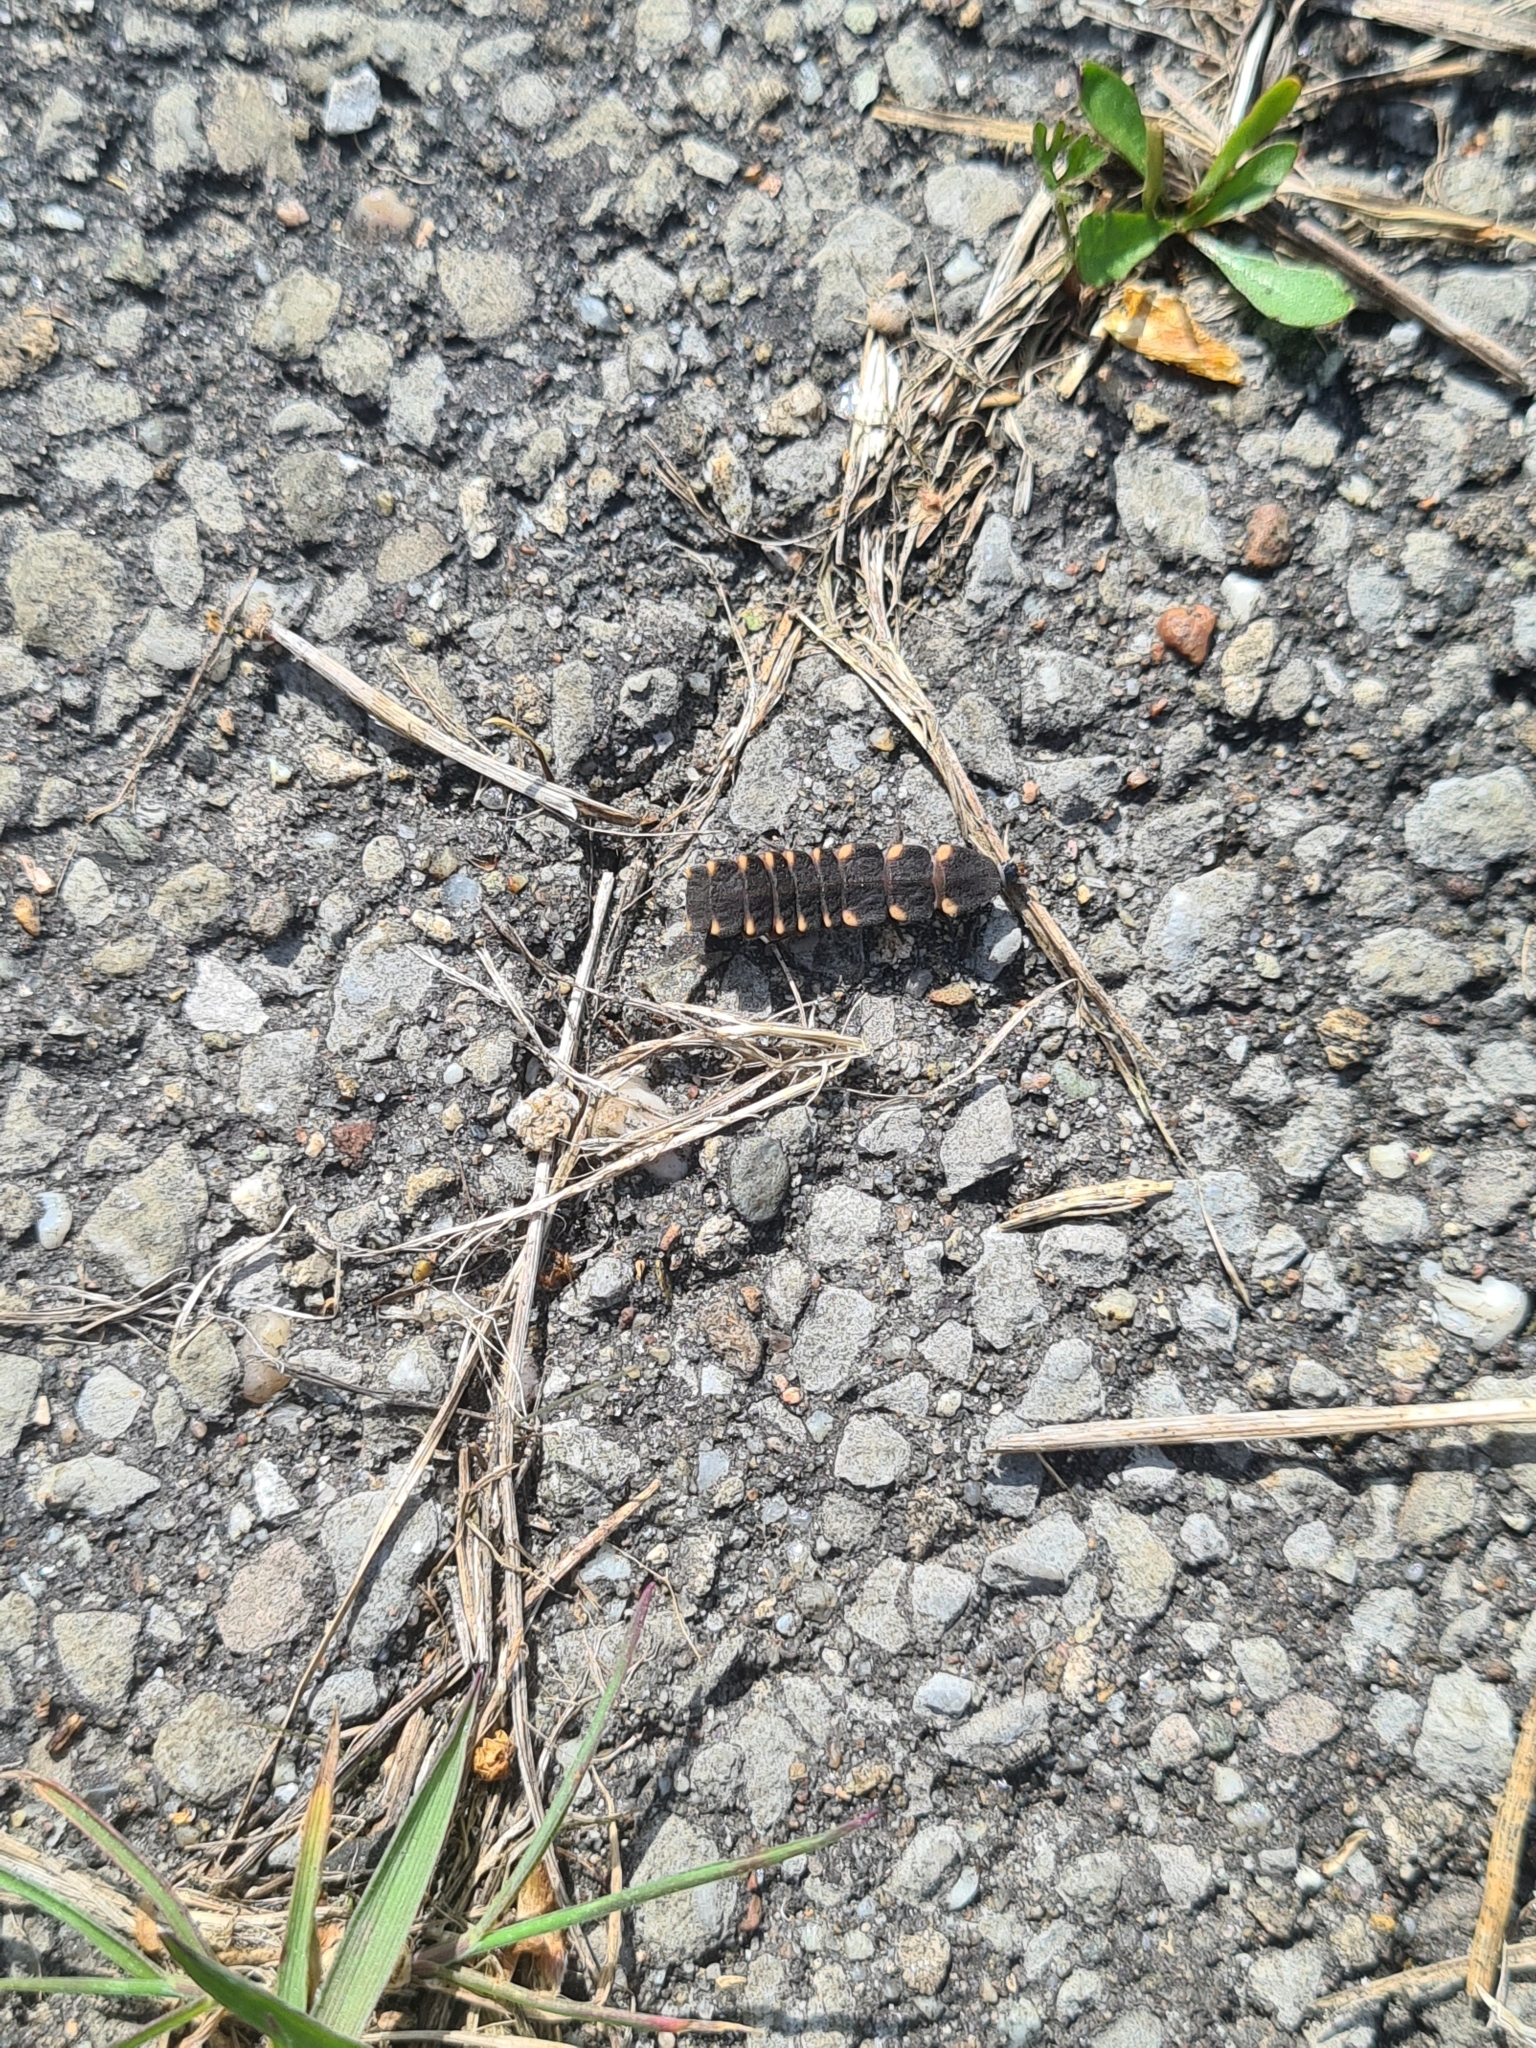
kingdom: Animalia
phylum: Arthropoda
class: Insecta
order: Coleoptera
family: Lampyridae
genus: Lampyris
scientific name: Lampyris noctiluca
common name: Glow-worm
